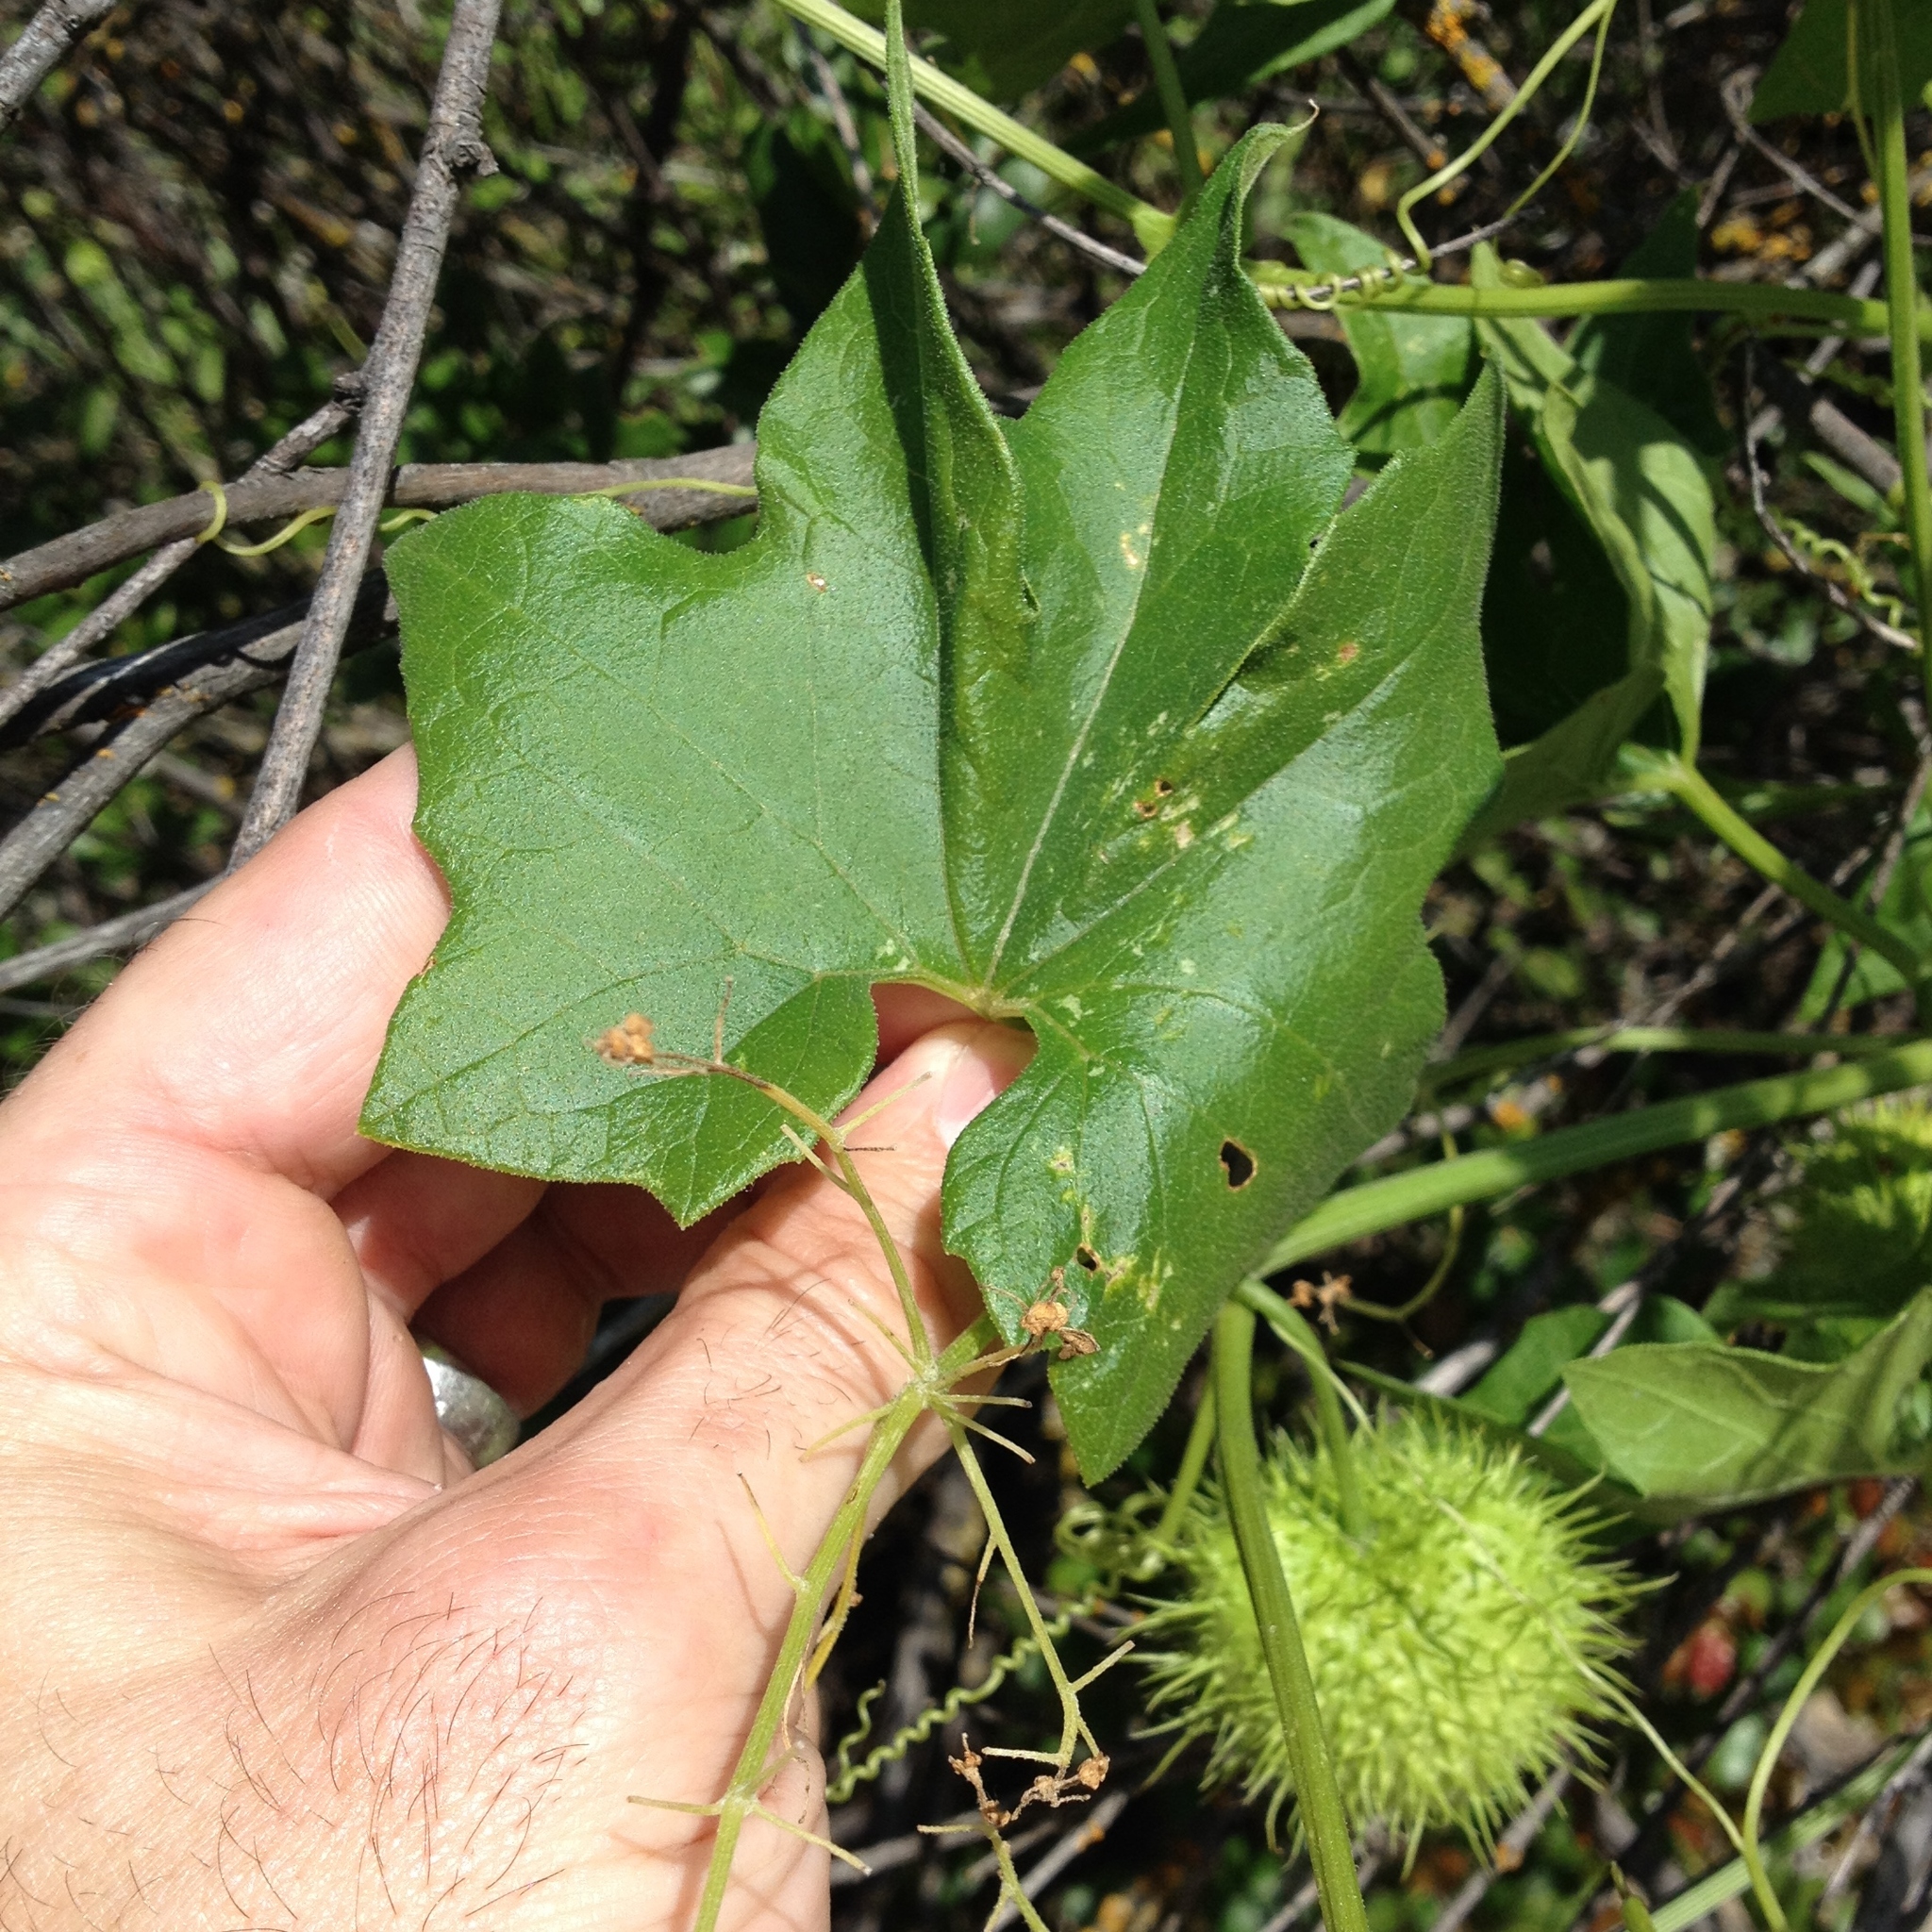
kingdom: Plantae
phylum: Tracheophyta
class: Magnoliopsida
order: Cucurbitales
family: Cucurbitaceae
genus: Marah
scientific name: Marah fabacea
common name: California manroot
